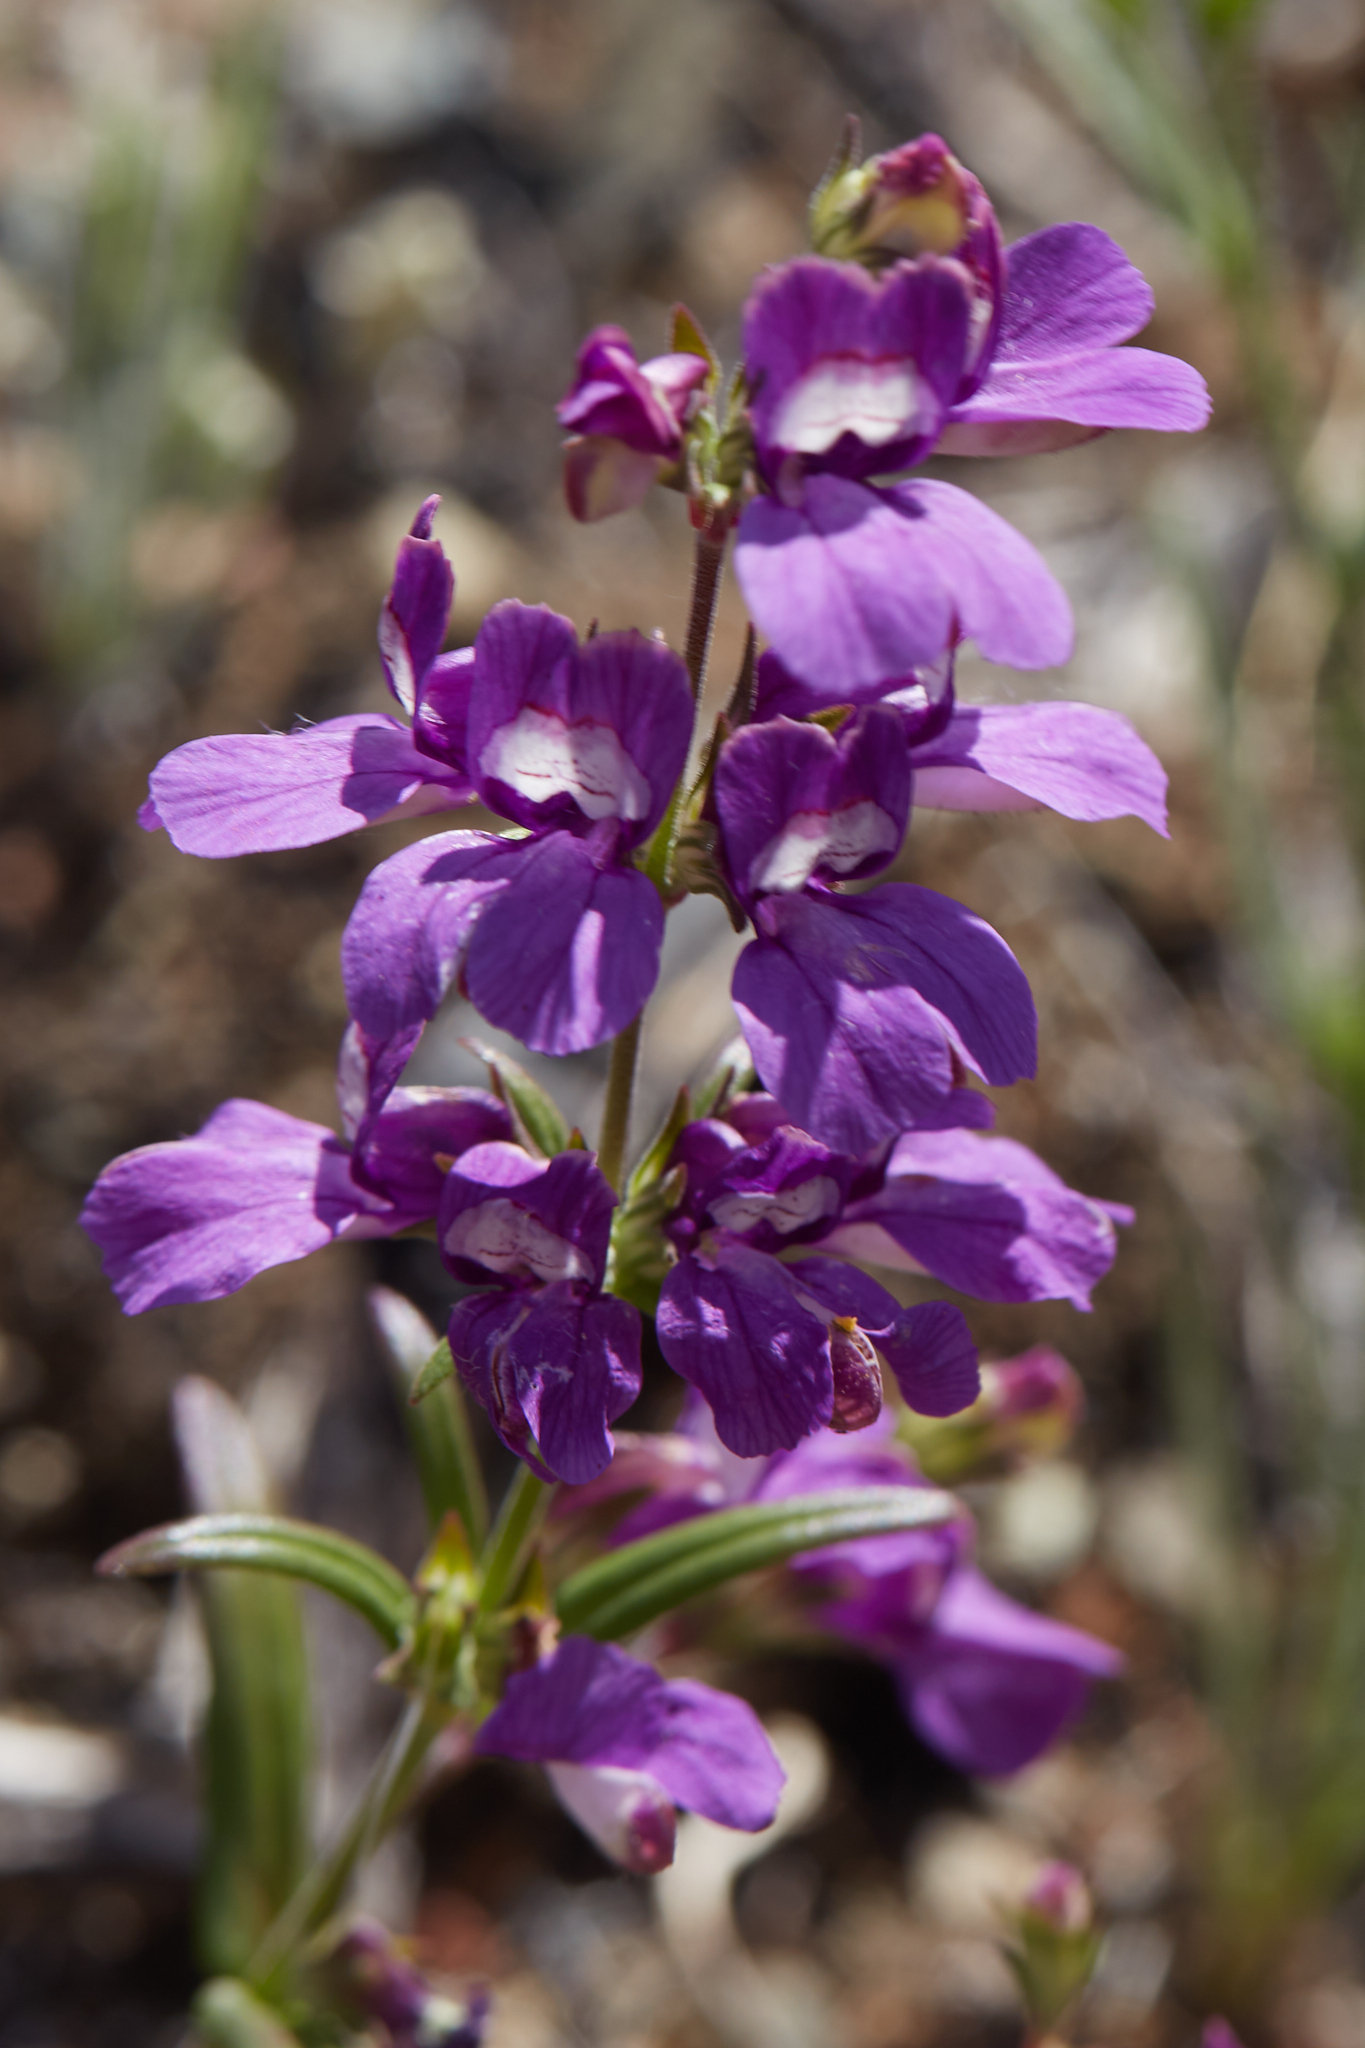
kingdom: Plantae
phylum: Tracheophyta
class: Magnoliopsida
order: Lamiales
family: Plantaginaceae
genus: Collinsia
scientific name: Collinsia heterophylla
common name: Chinese-houses
